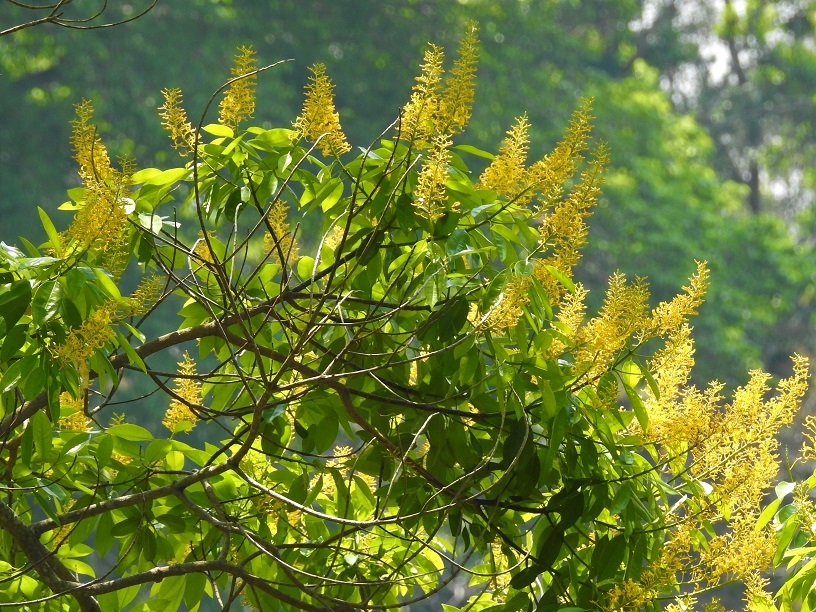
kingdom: Plantae
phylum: Tracheophyta
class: Magnoliopsida
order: Myrtales
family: Vochysiaceae
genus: Vochysia
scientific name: Vochysia guatemalensis
